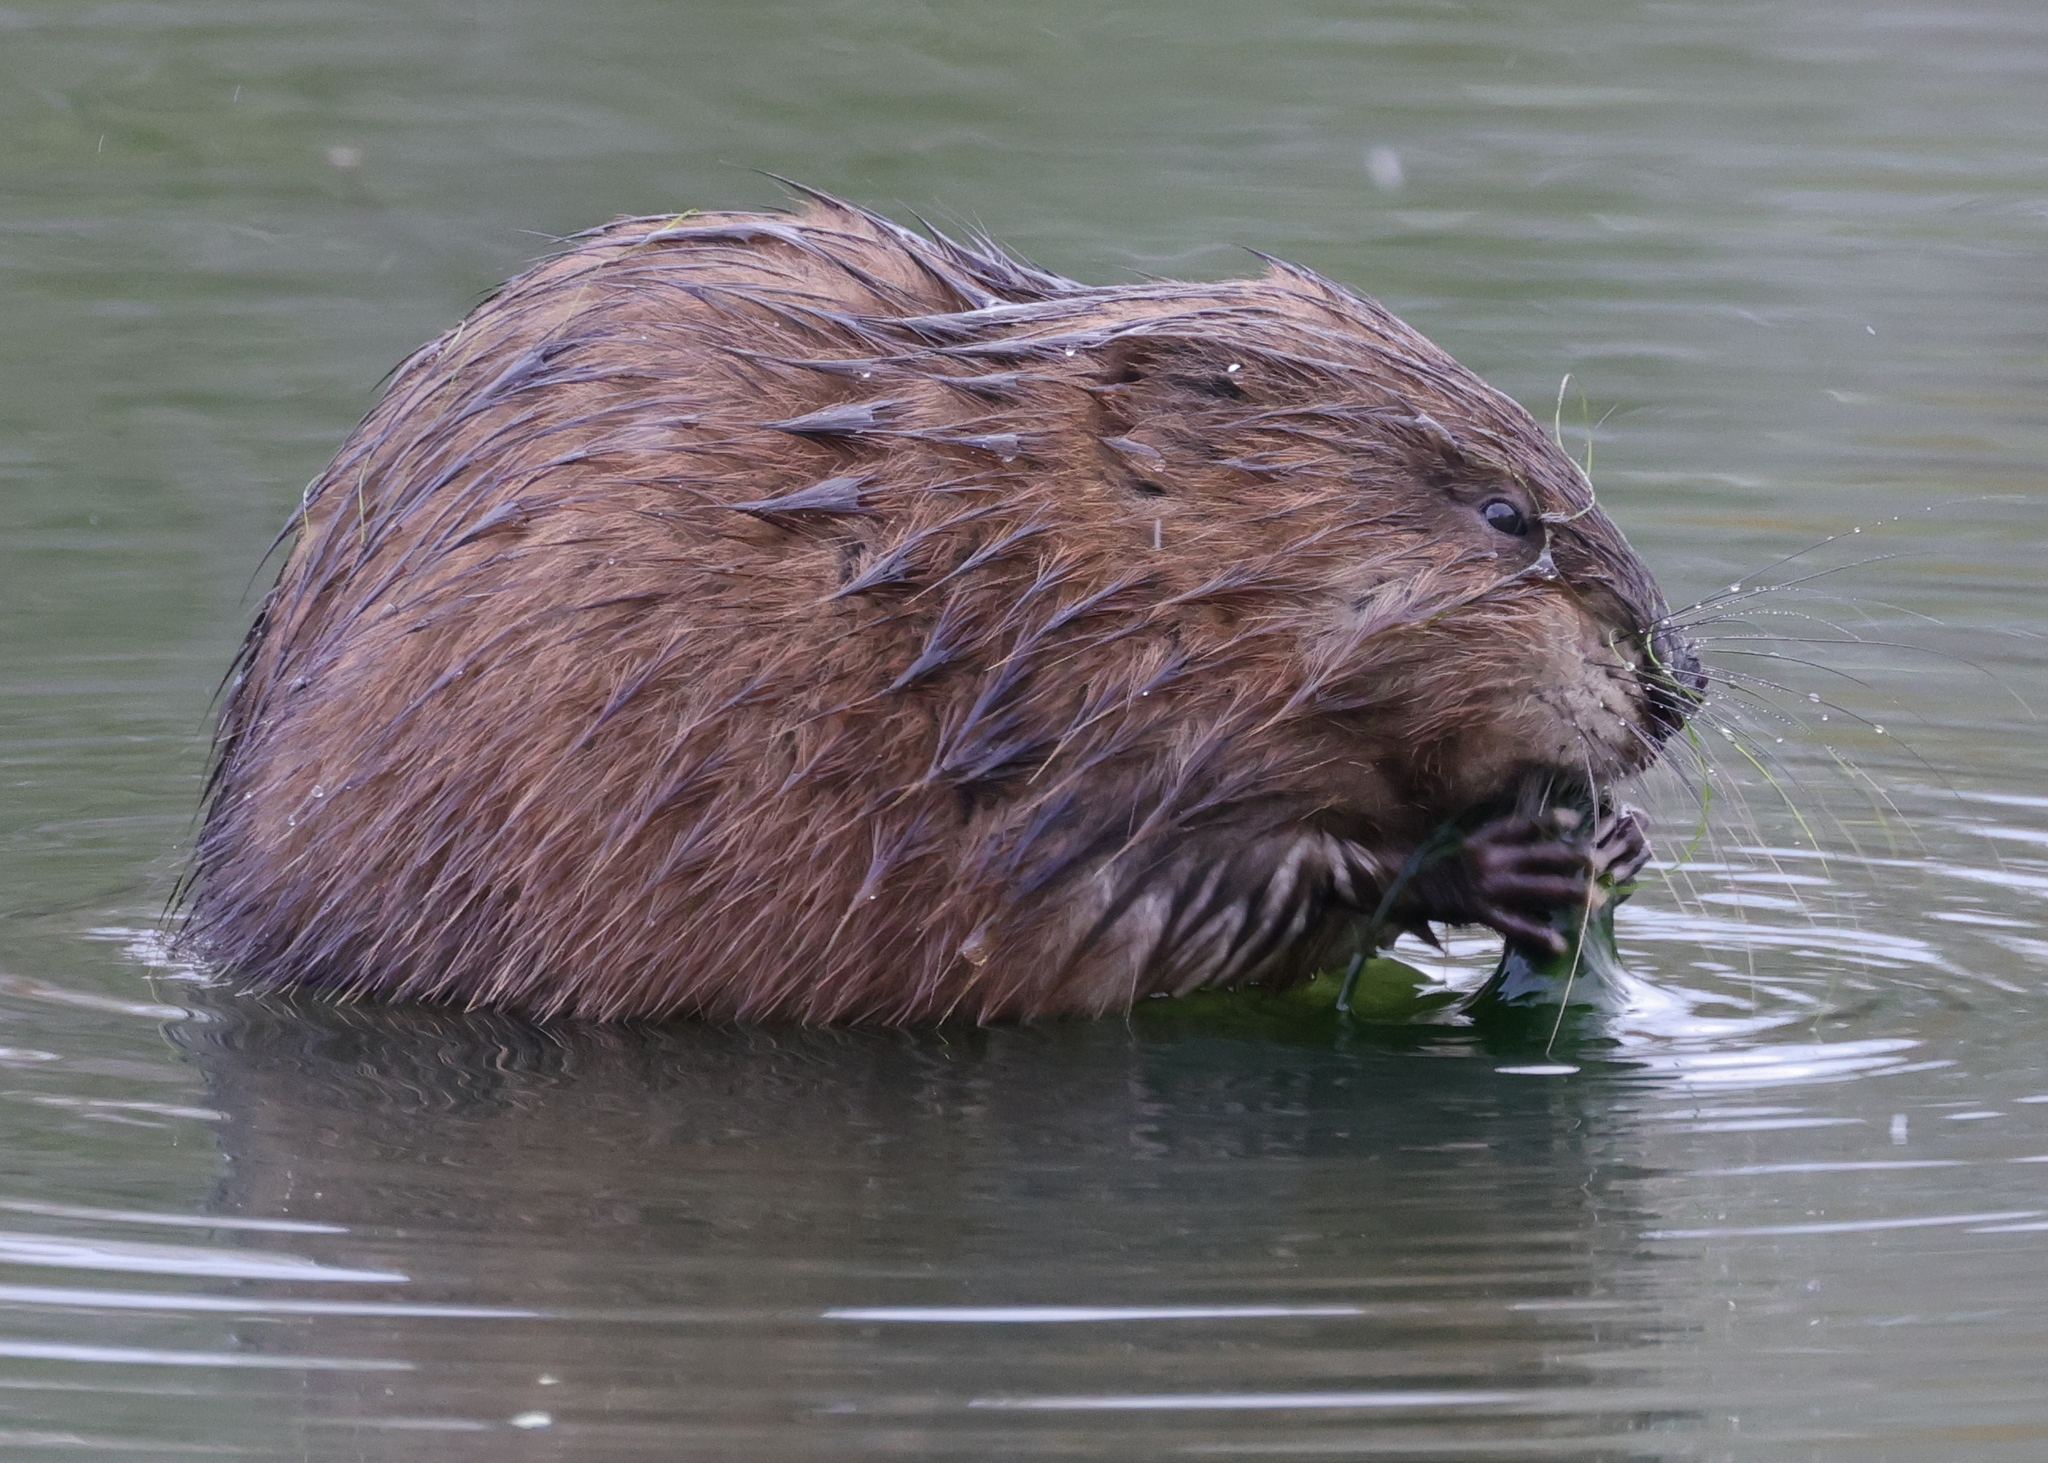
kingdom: Animalia
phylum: Chordata
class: Mammalia
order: Rodentia
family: Cricetidae
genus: Ondatra
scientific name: Ondatra zibethicus
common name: Muskrat
